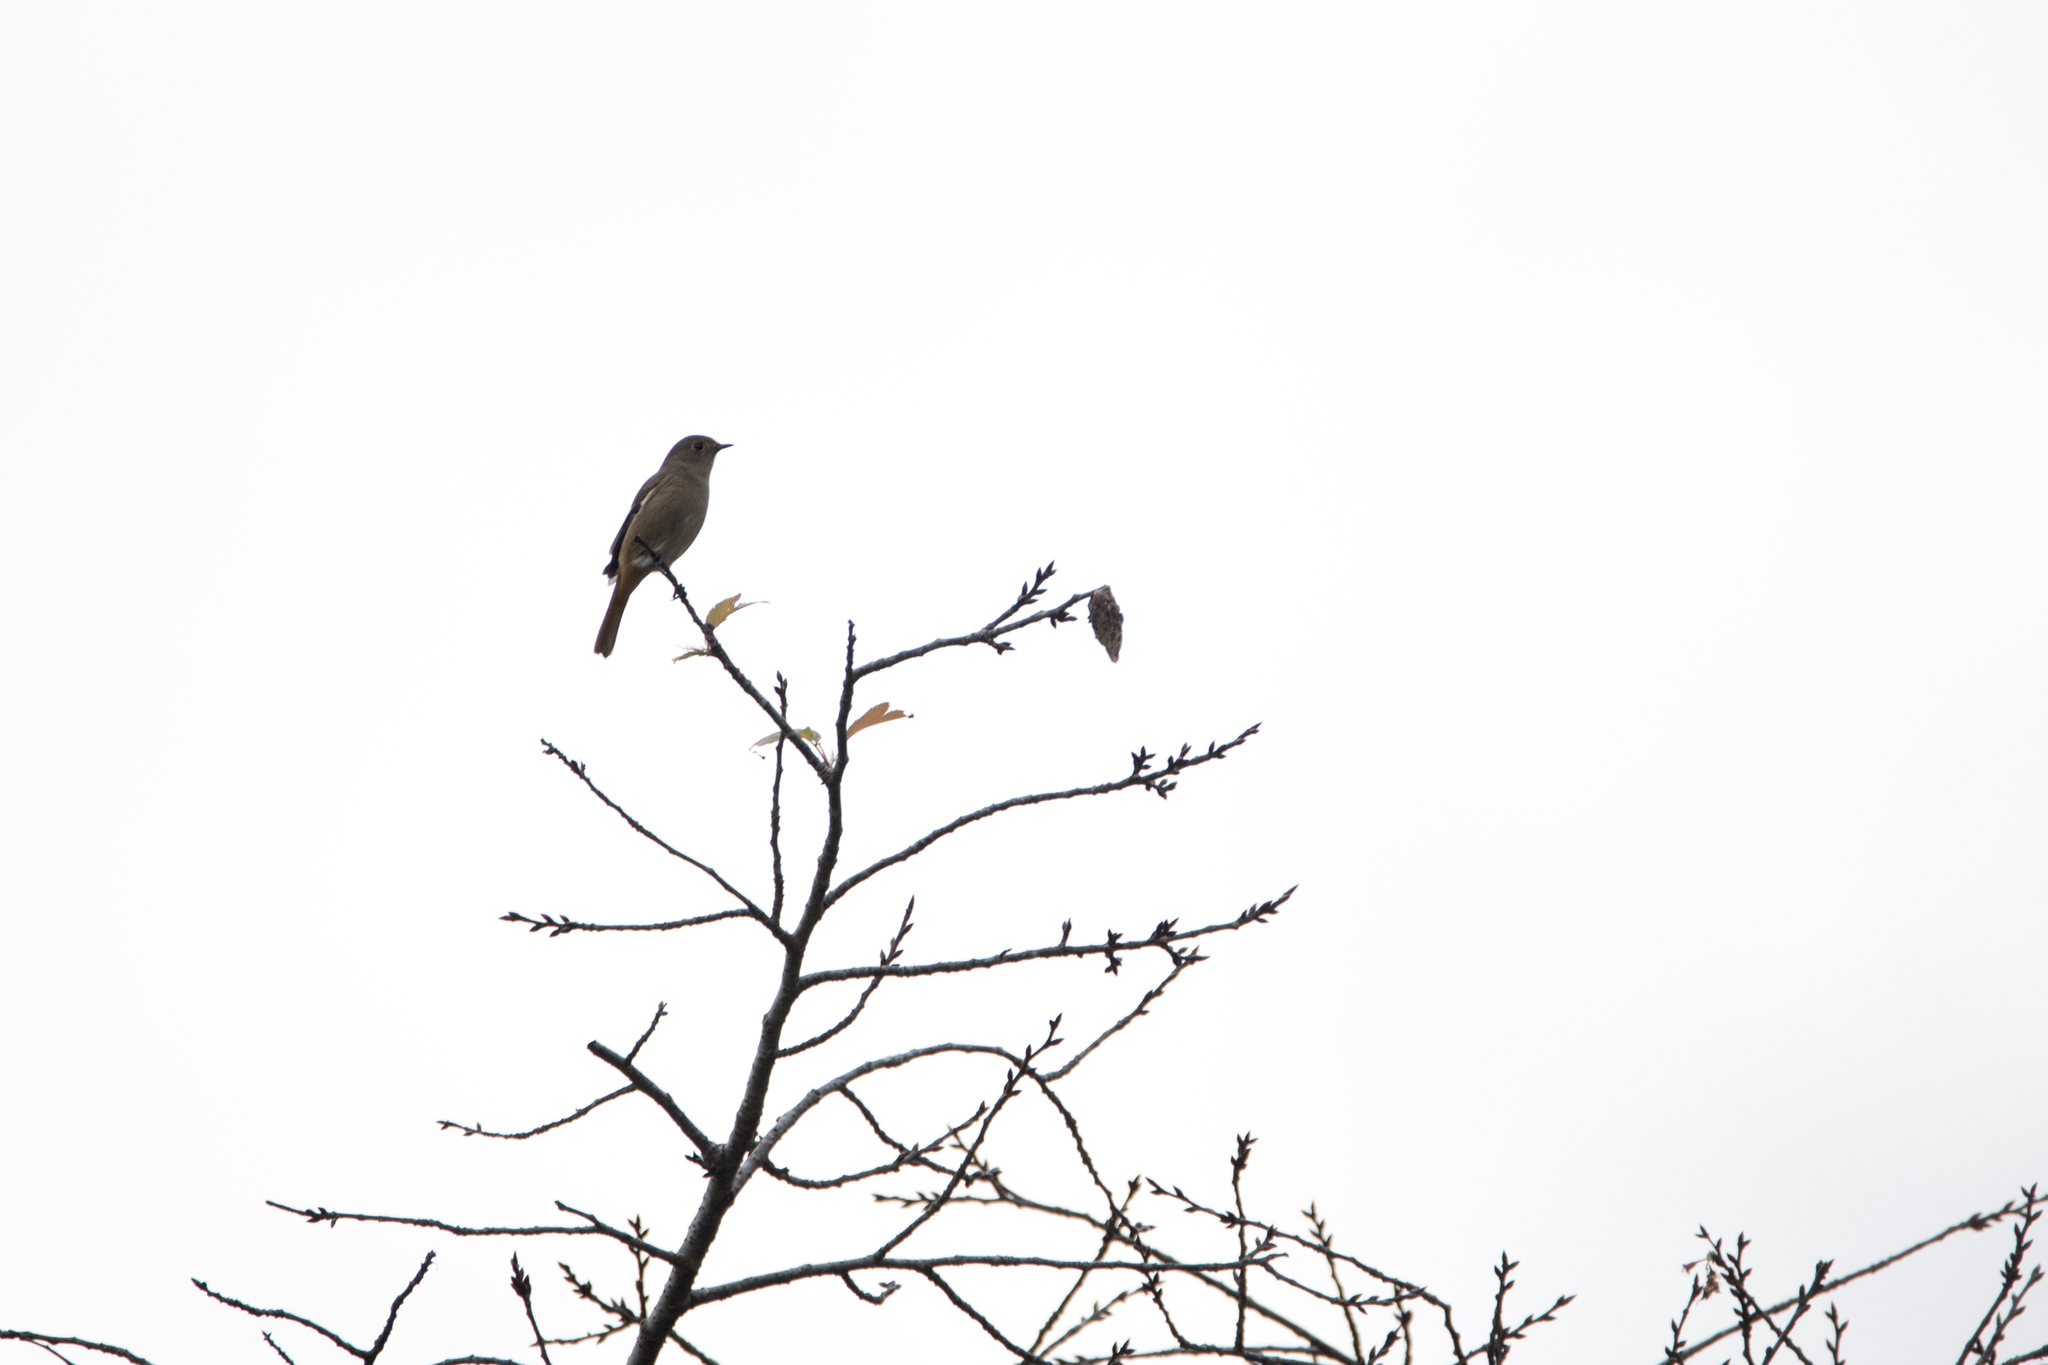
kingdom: Animalia
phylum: Chordata
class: Aves
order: Passeriformes
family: Muscicapidae
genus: Phoenicurus
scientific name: Phoenicurus auroreus
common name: Daurian redstart
